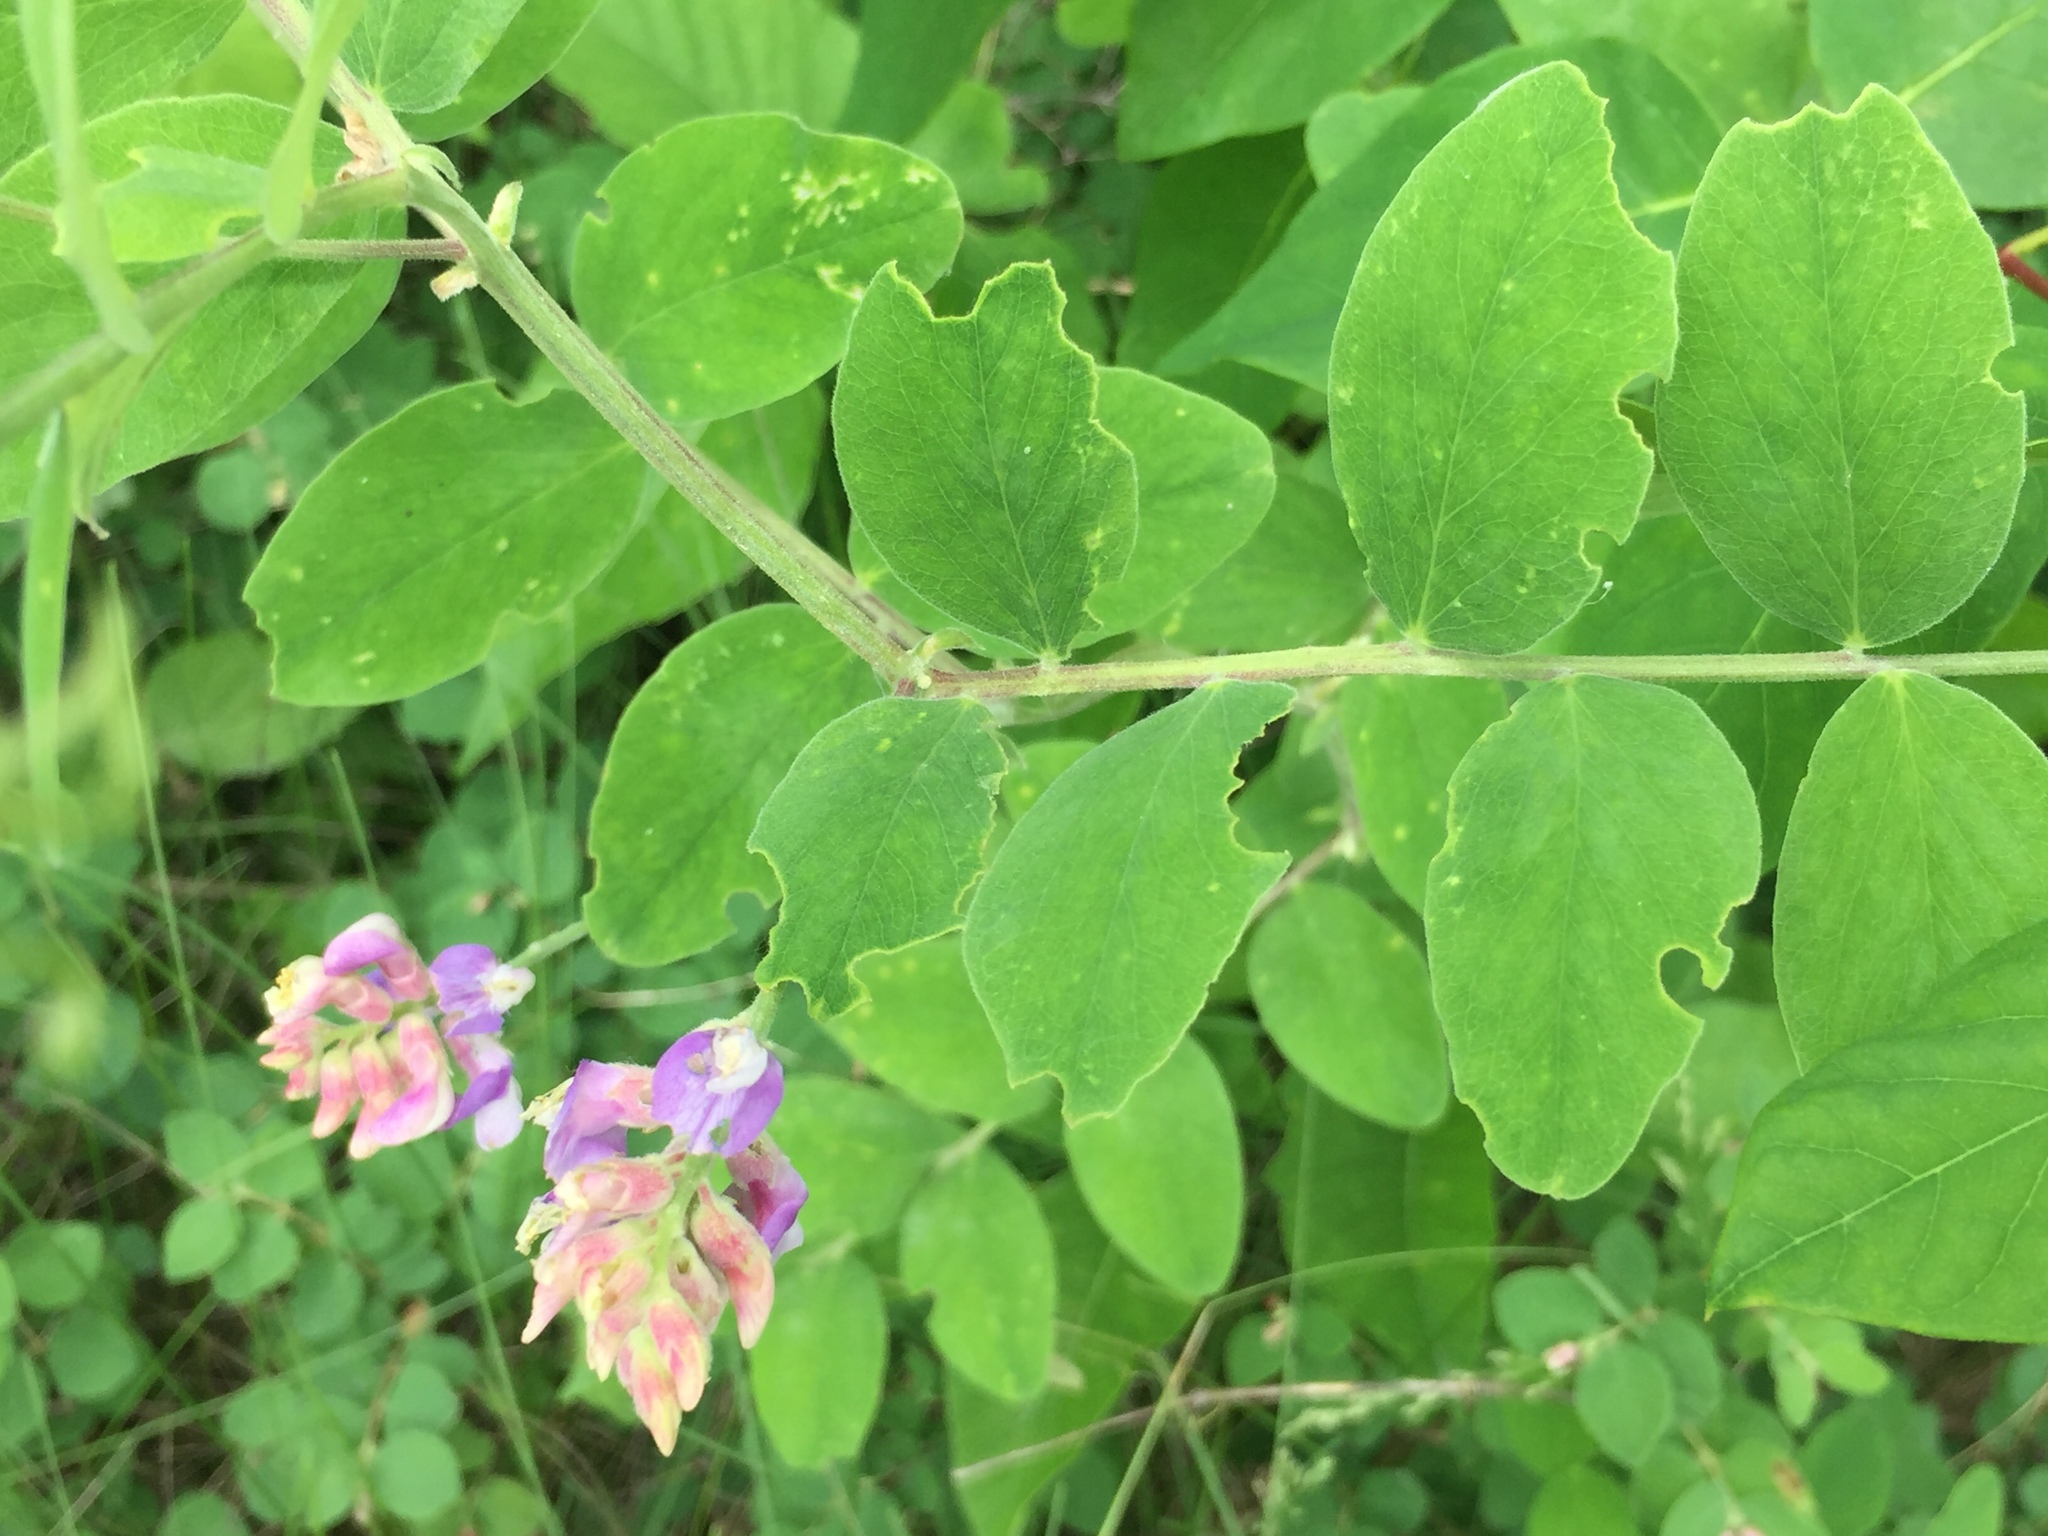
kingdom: Plantae
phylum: Tracheophyta
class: Magnoliopsida
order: Fabales
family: Fabaceae
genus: Lathyrus
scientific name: Lathyrus venosus
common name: Forest-pea
